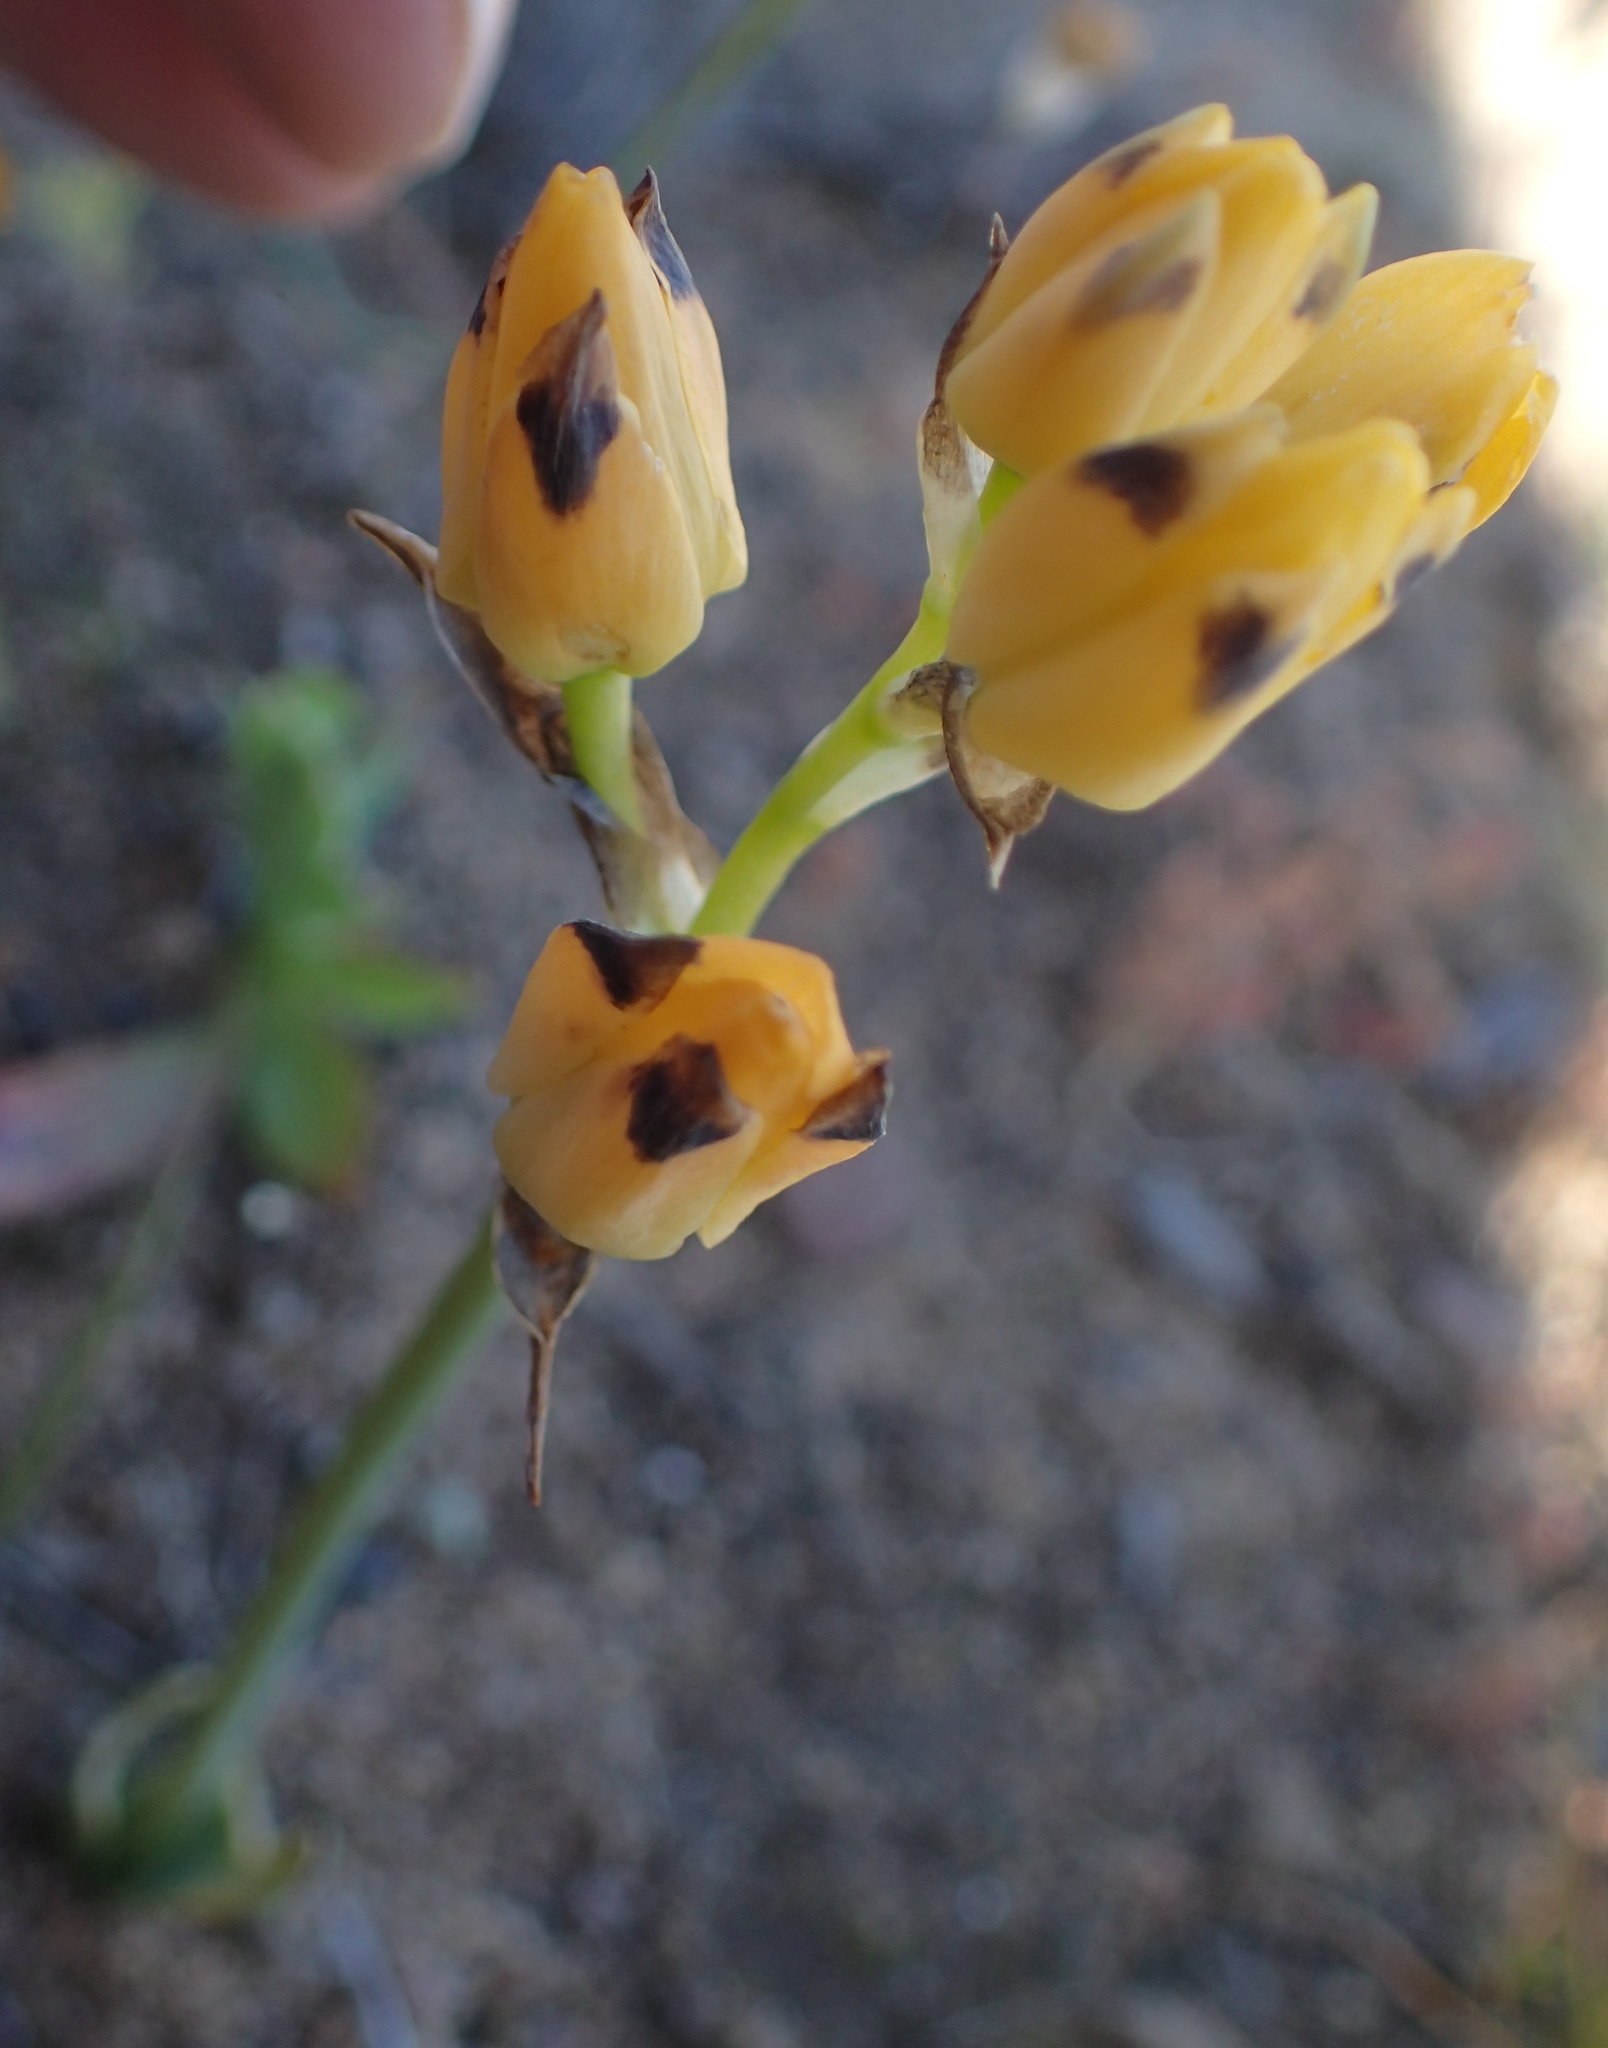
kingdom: Plantae
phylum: Tracheophyta
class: Liliopsida
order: Asparagales
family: Asparagaceae
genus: Ornithogalum
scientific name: Ornithogalum maculatum
